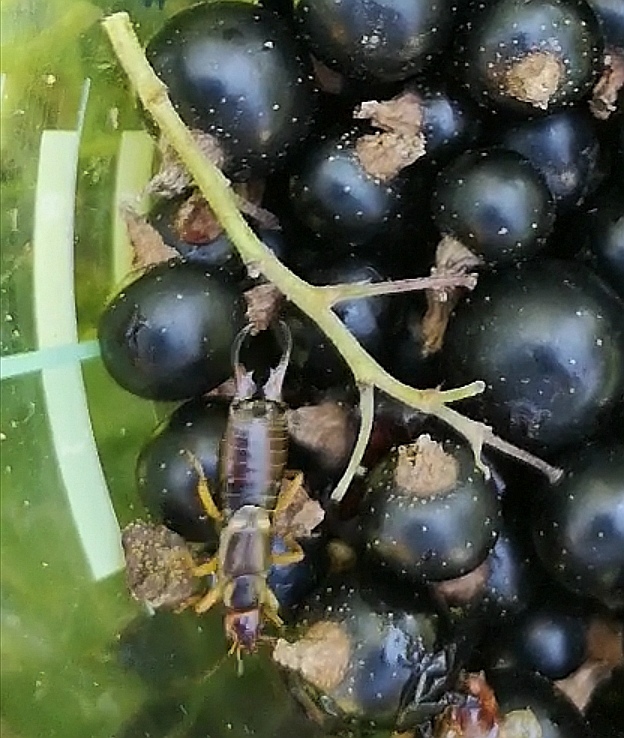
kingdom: Animalia
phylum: Arthropoda
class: Insecta
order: Dermaptera
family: Forficulidae
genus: Forficula
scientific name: Forficula
